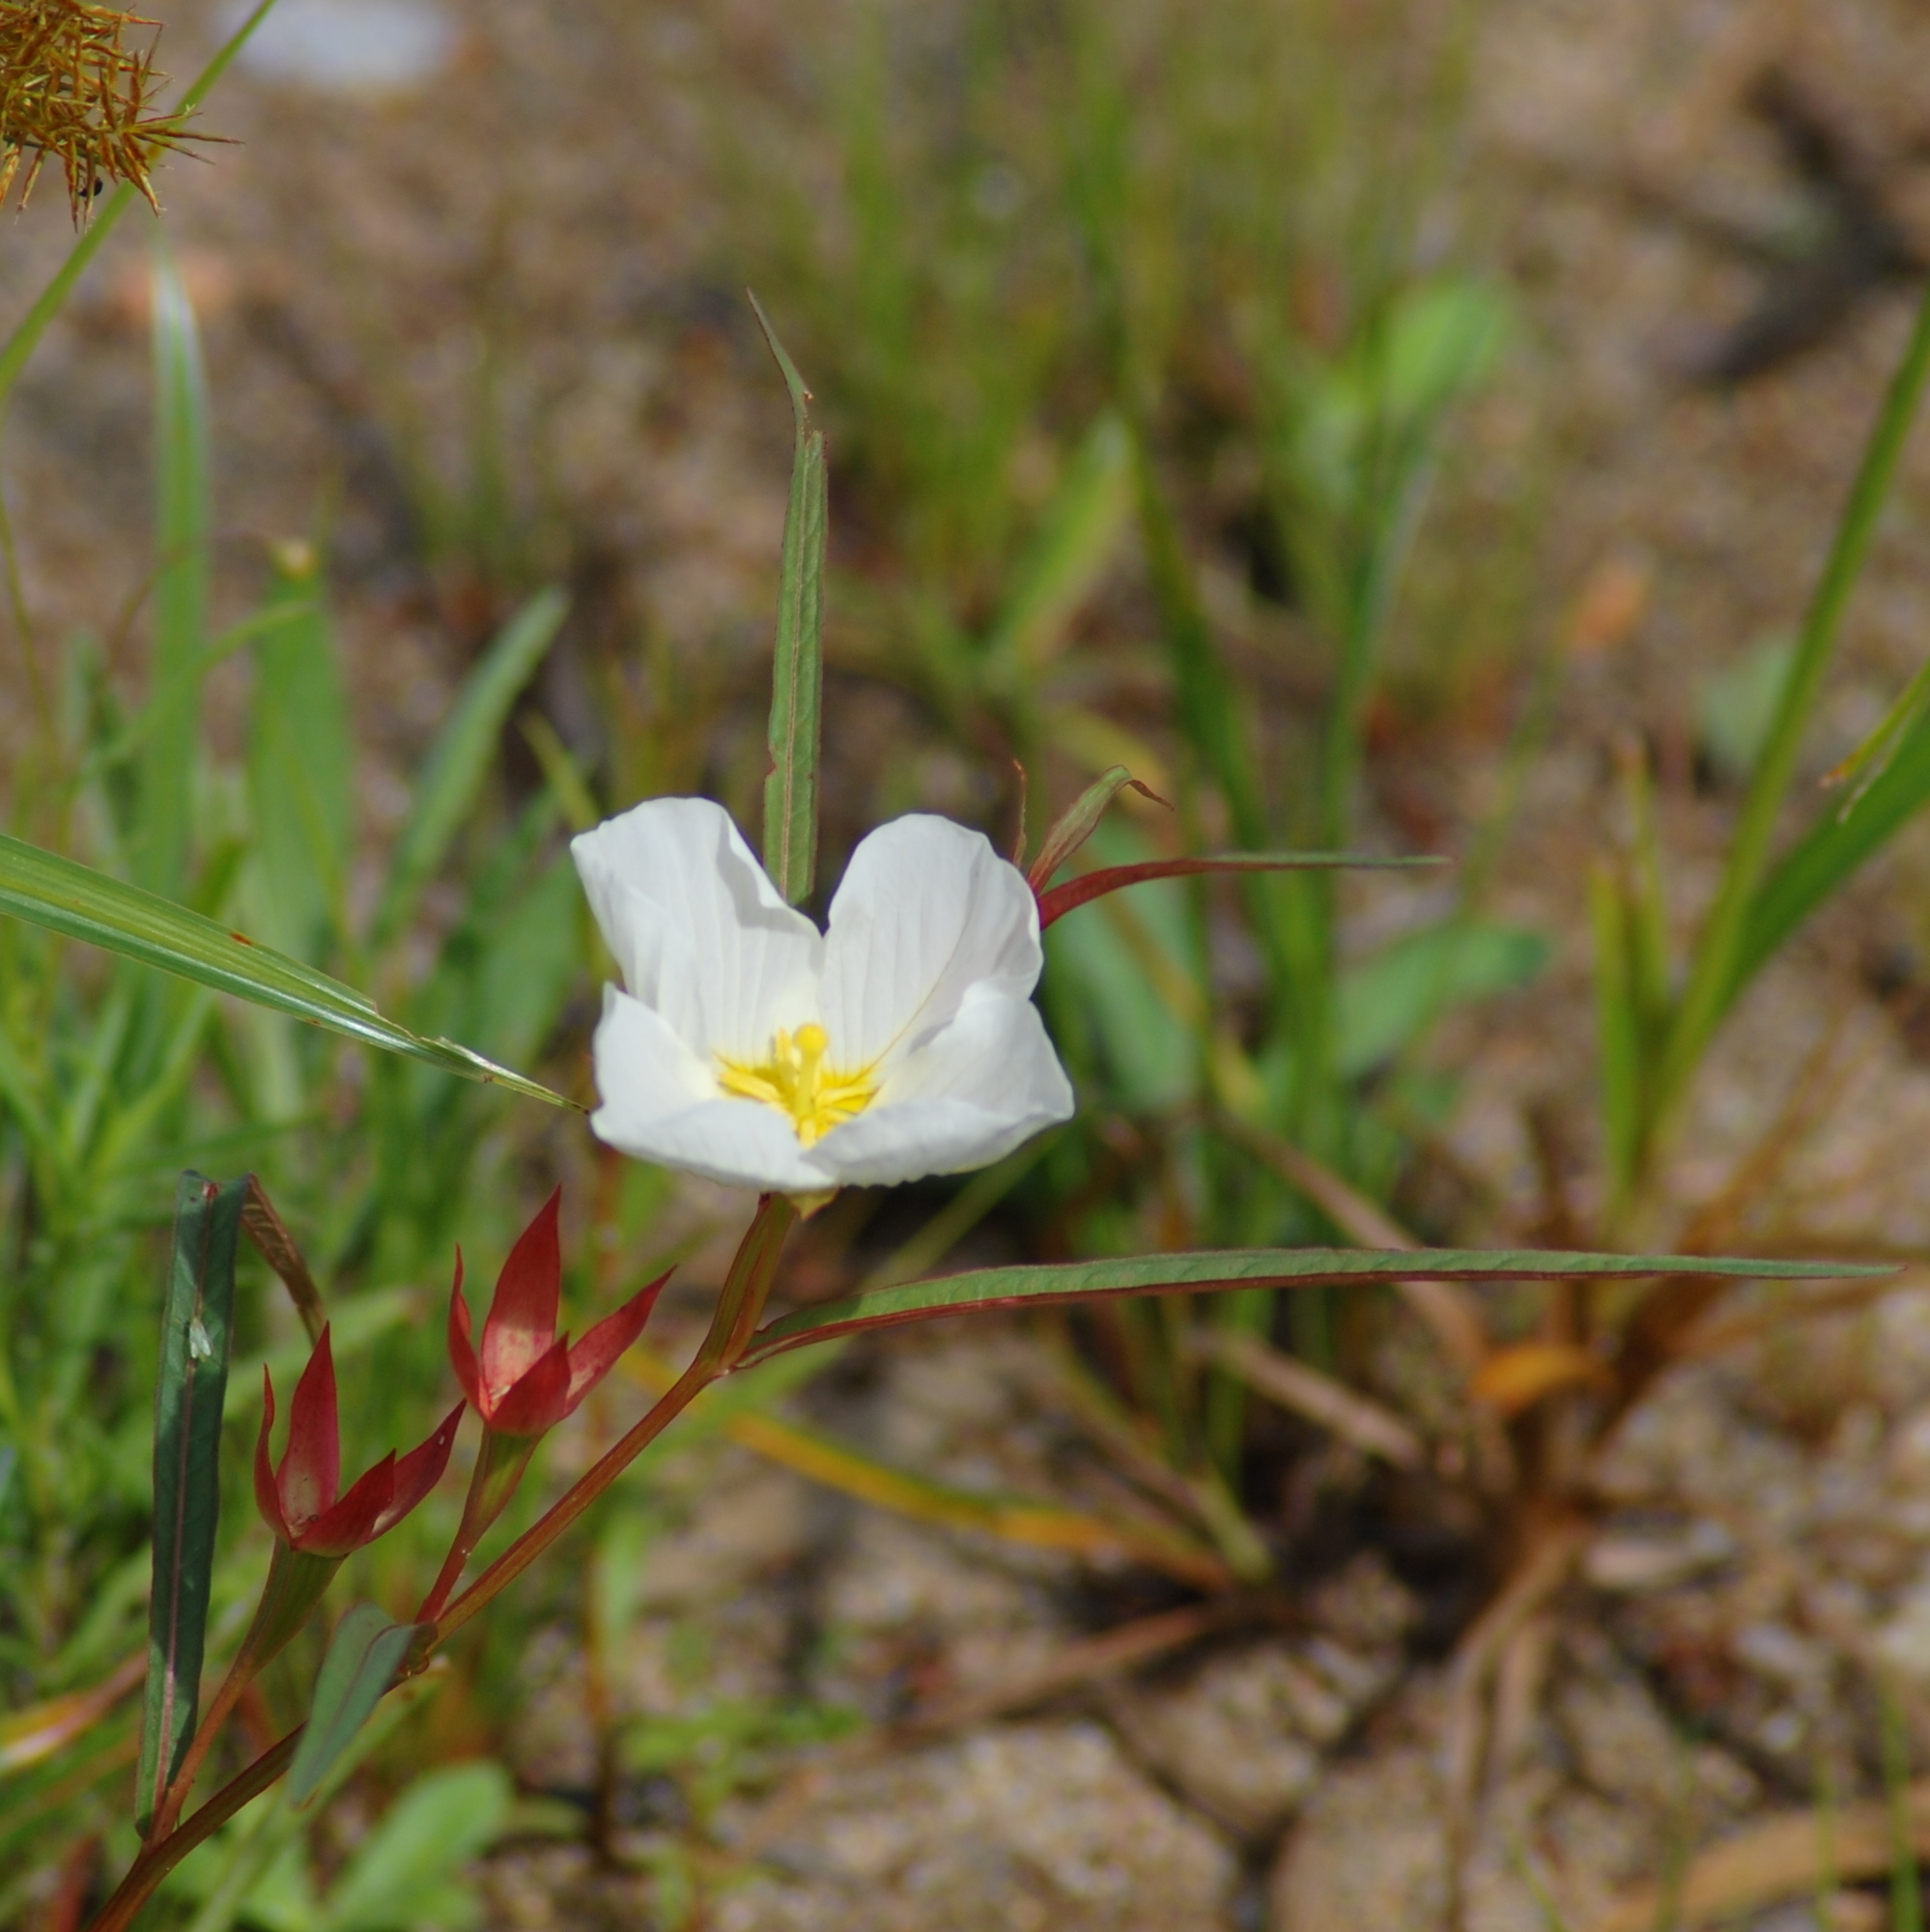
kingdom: Plantae
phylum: Tracheophyta
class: Magnoliopsida
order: Myrtales
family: Onagraceae
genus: Ludwigia
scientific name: Ludwigia major
